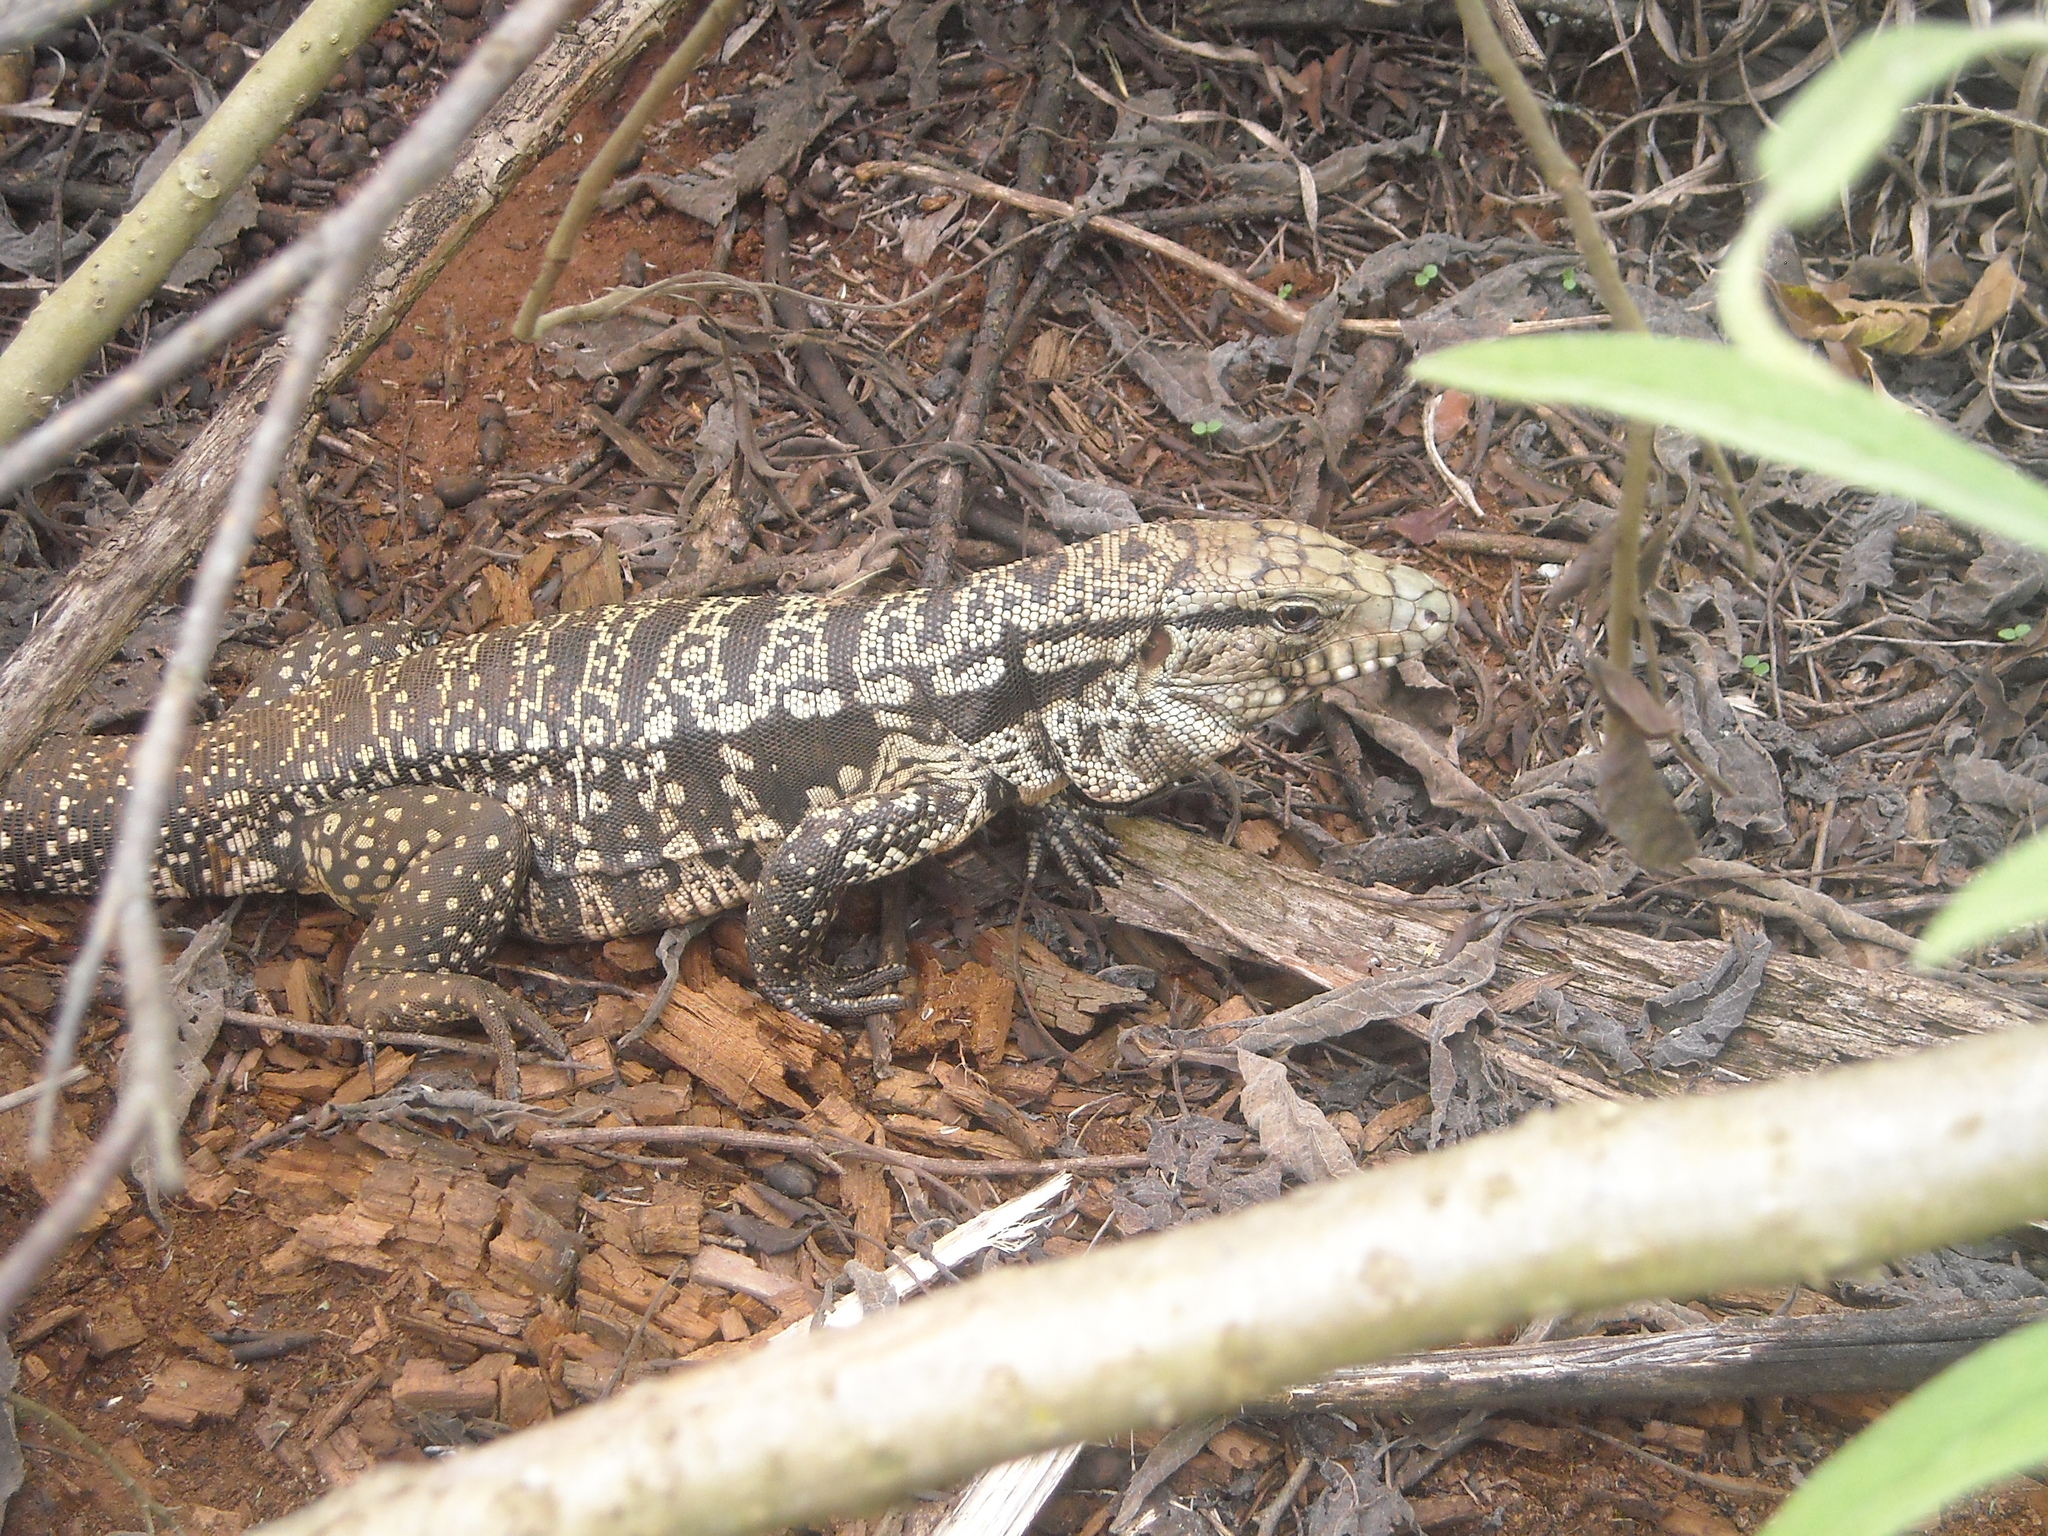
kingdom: Animalia
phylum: Chordata
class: Squamata
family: Teiidae
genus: Salvator
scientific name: Salvator merianae
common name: Argentine black and white tegu
